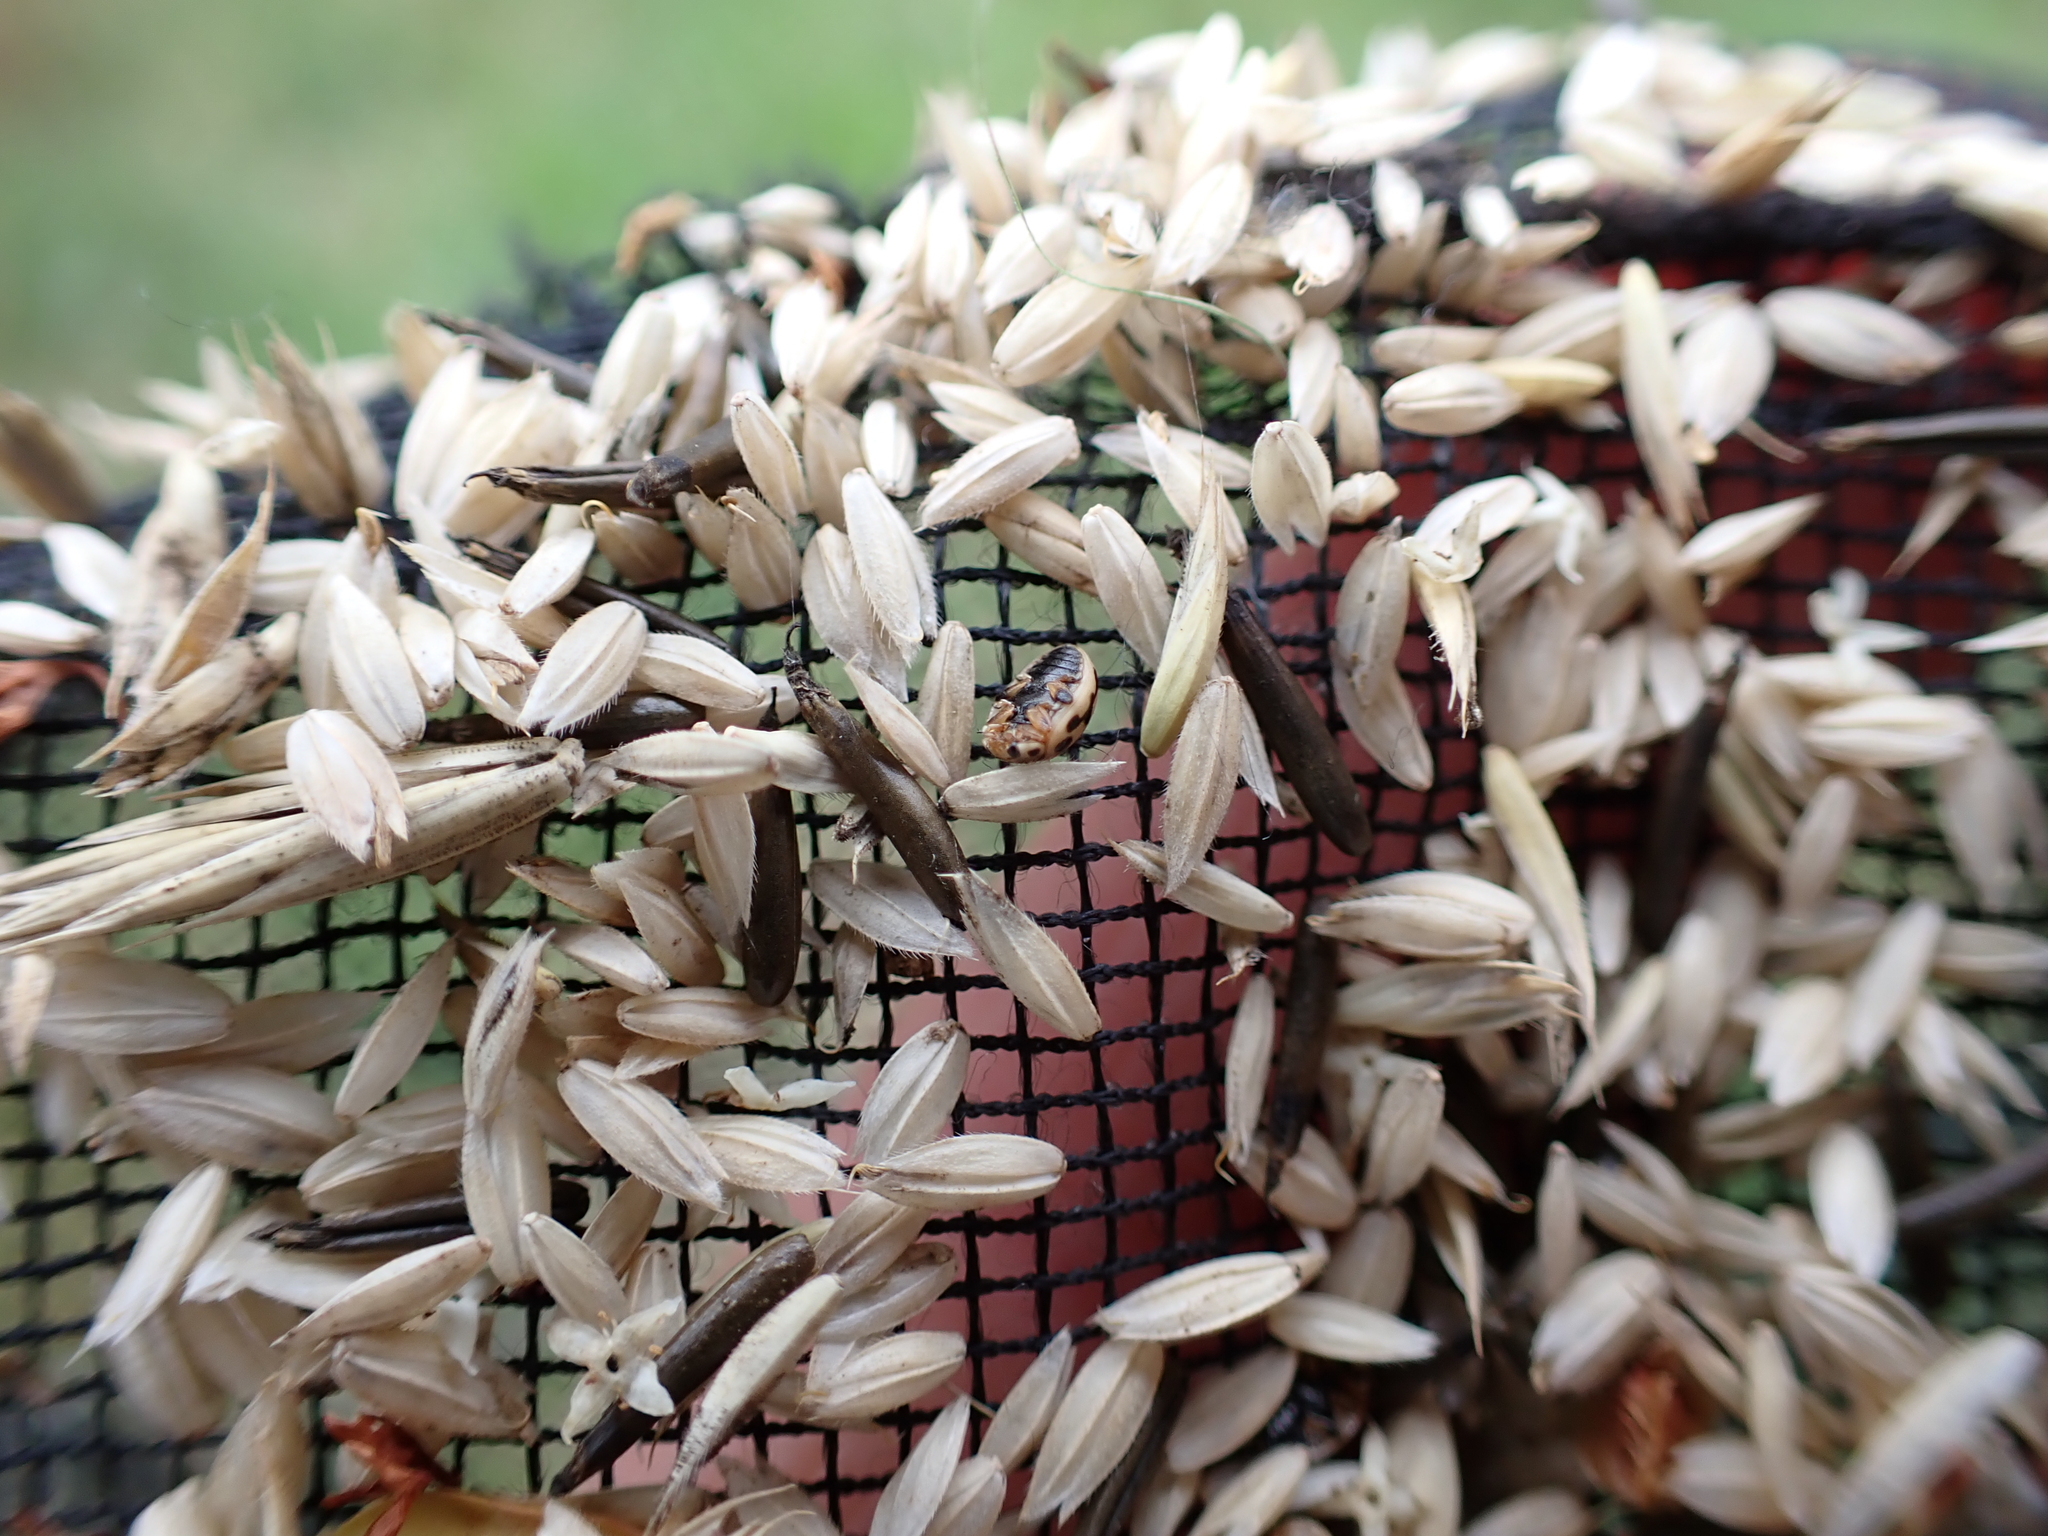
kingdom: Animalia
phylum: Arthropoda
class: Insecta
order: Coleoptera
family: Coccinellidae
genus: Tytthaspis
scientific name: Tytthaspis sedecimpunctata
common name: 16-spot ladybird
